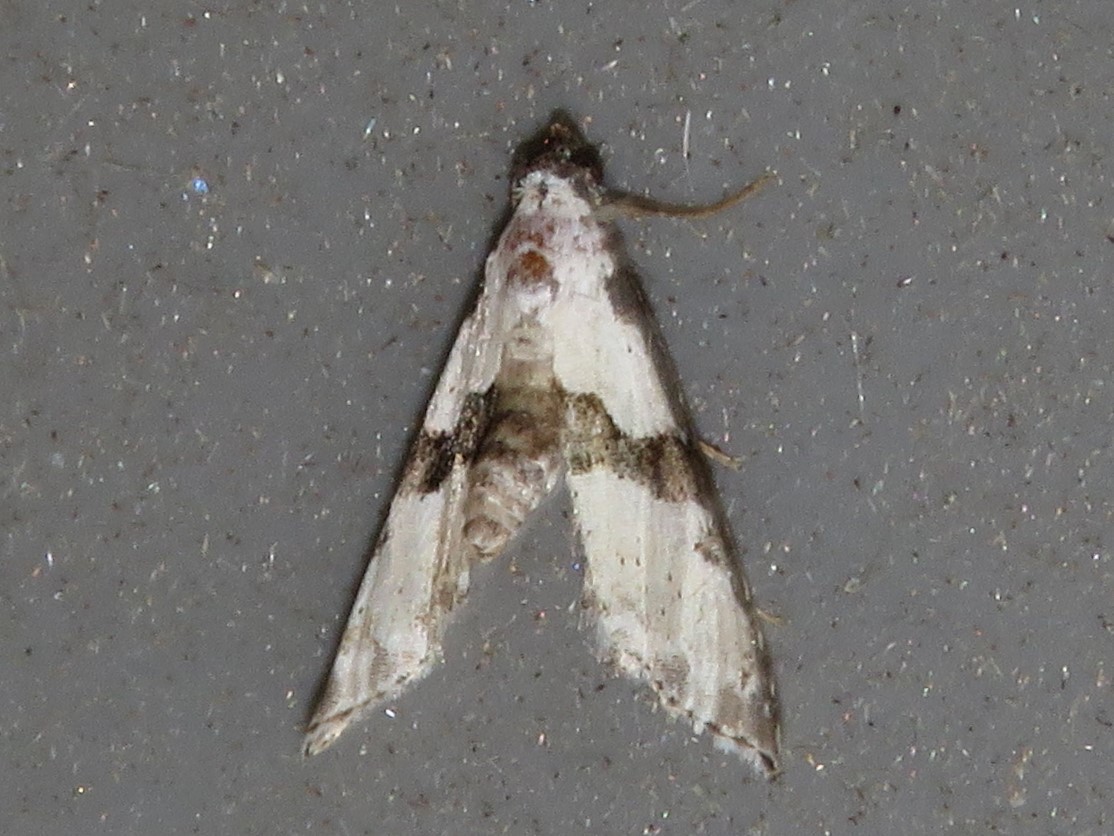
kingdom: Animalia
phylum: Arthropoda
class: Insecta
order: Lepidoptera
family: Noctuidae
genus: Nigetia
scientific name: Nigetia formosalis
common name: Thin-winged owlet
